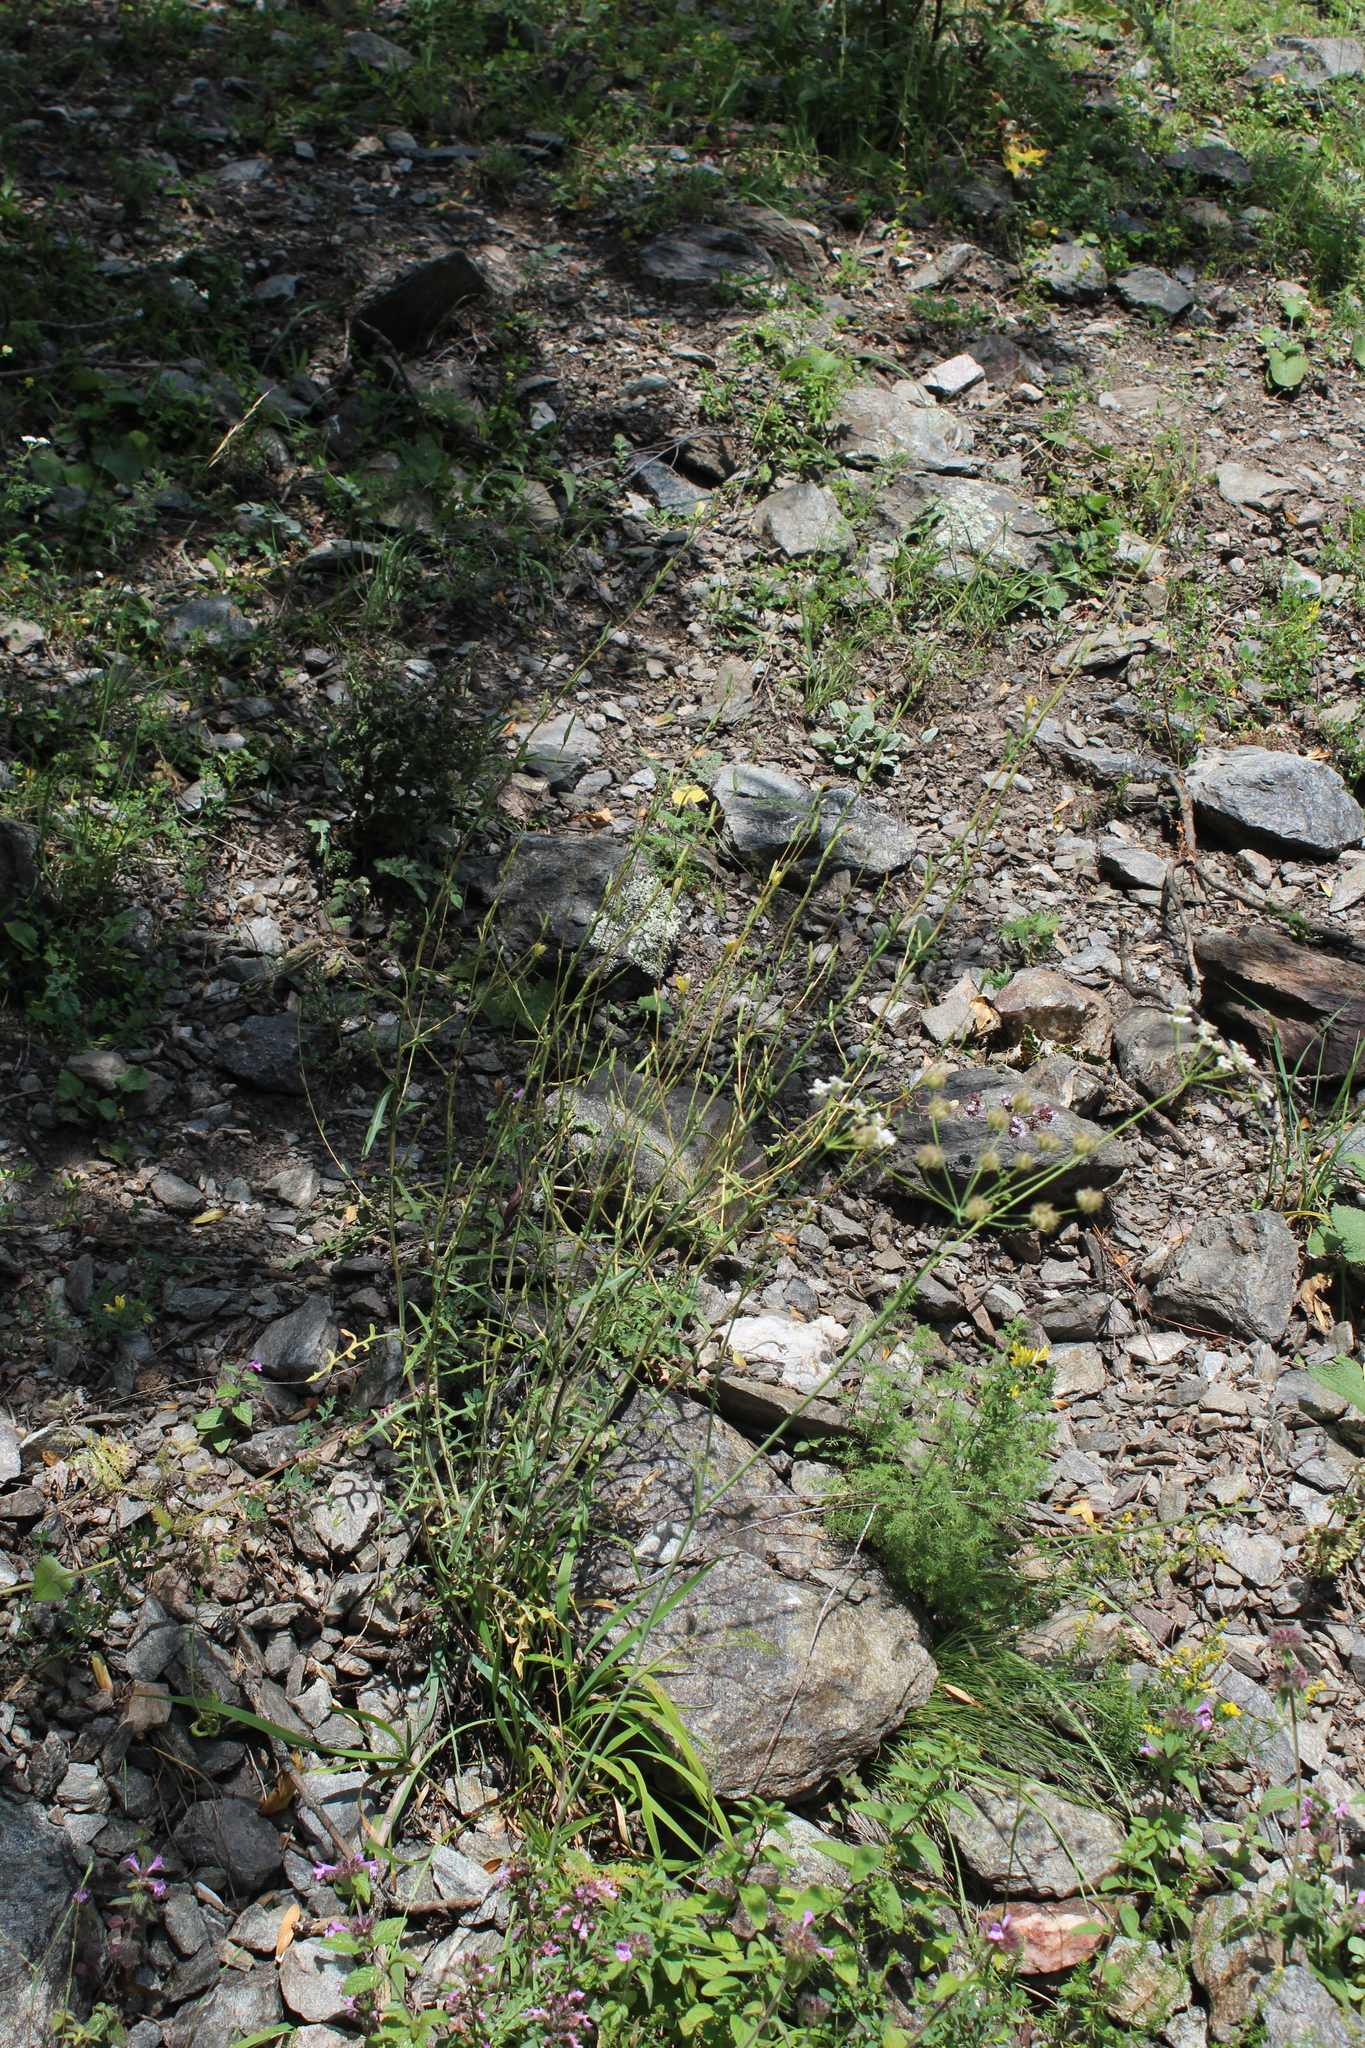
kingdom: Plantae
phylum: Tracheophyta
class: Magnoliopsida
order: Asterales
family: Asteraceae
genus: Lactuca
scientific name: Lactuca viminea
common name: Pliant lettuce
